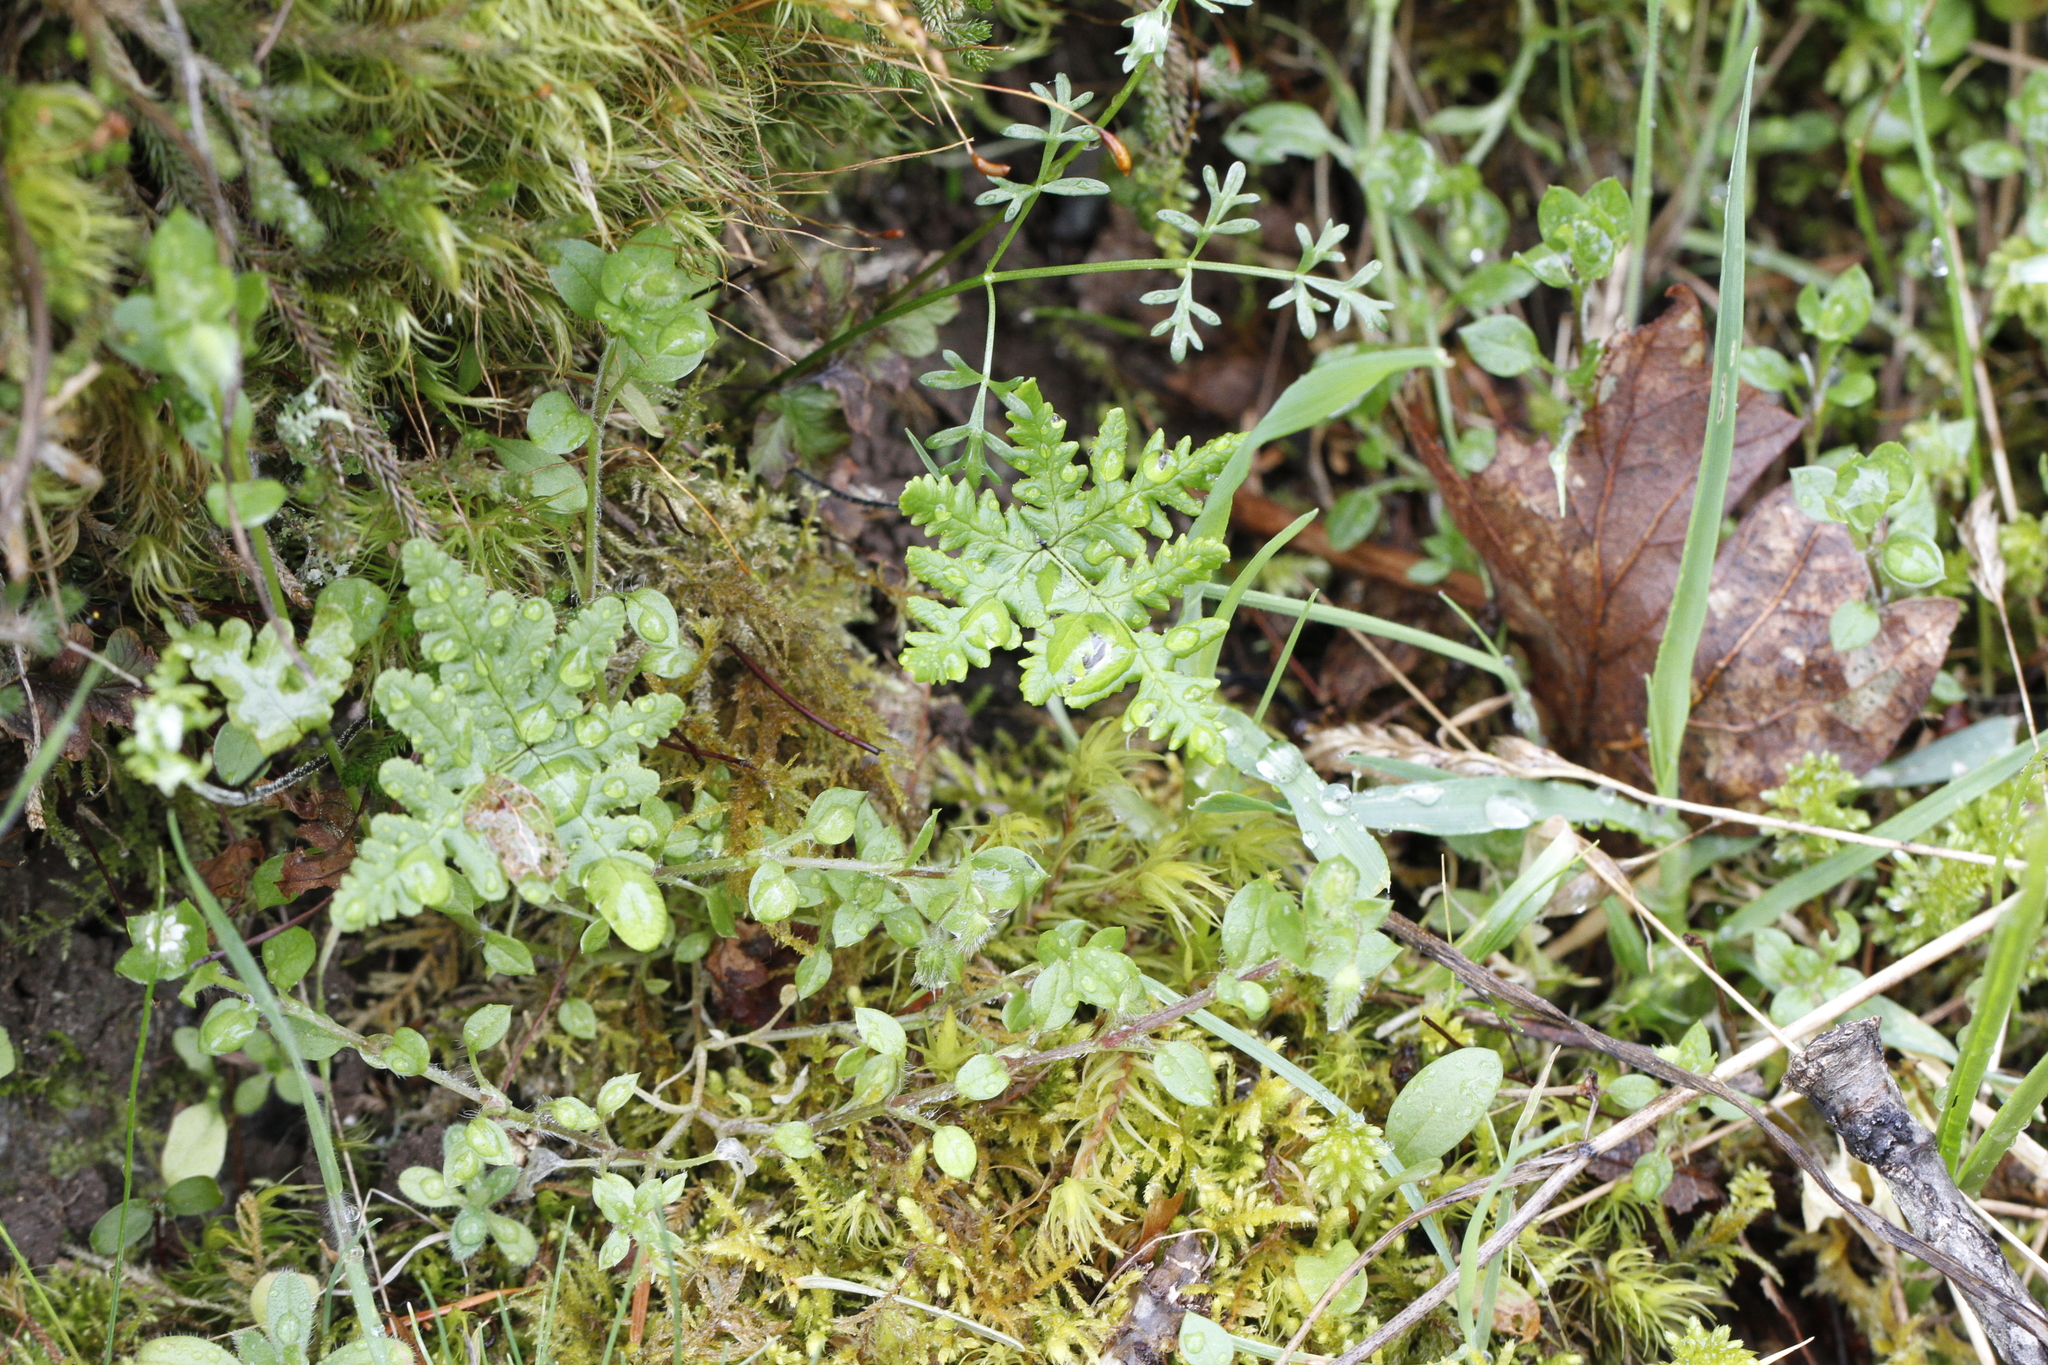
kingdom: Plantae
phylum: Tracheophyta
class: Polypodiopsida
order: Polypodiales
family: Pteridaceae
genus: Pentagramma
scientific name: Pentagramma triangularis
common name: Gold fern
